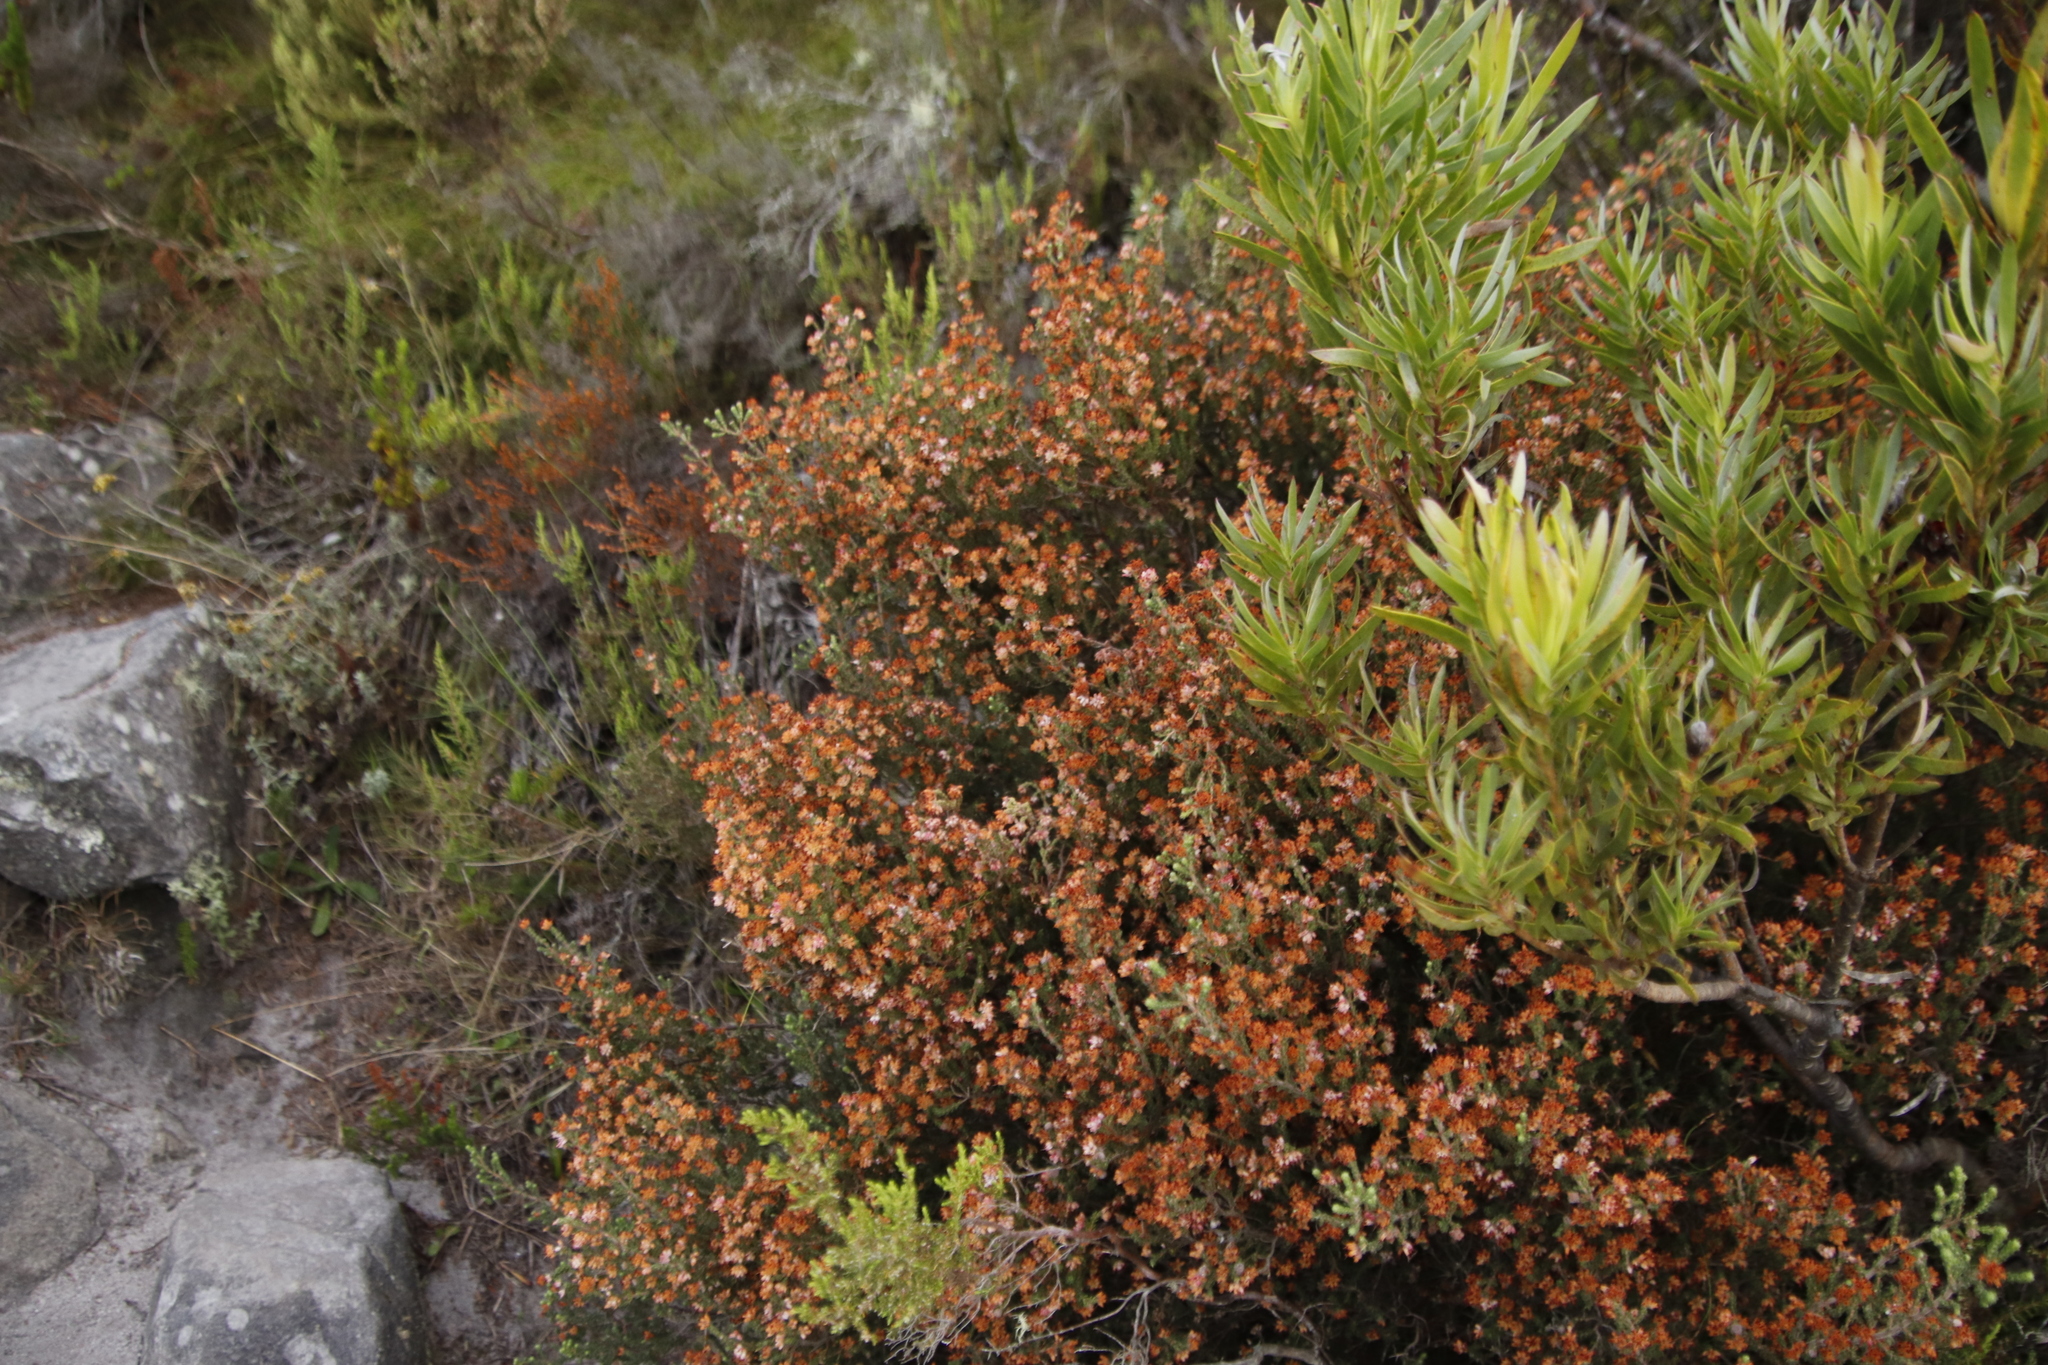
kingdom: Plantae
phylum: Tracheophyta
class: Magnoliopsida
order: Ericales
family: Ericaceae
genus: Erica
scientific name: Erica ericoides
